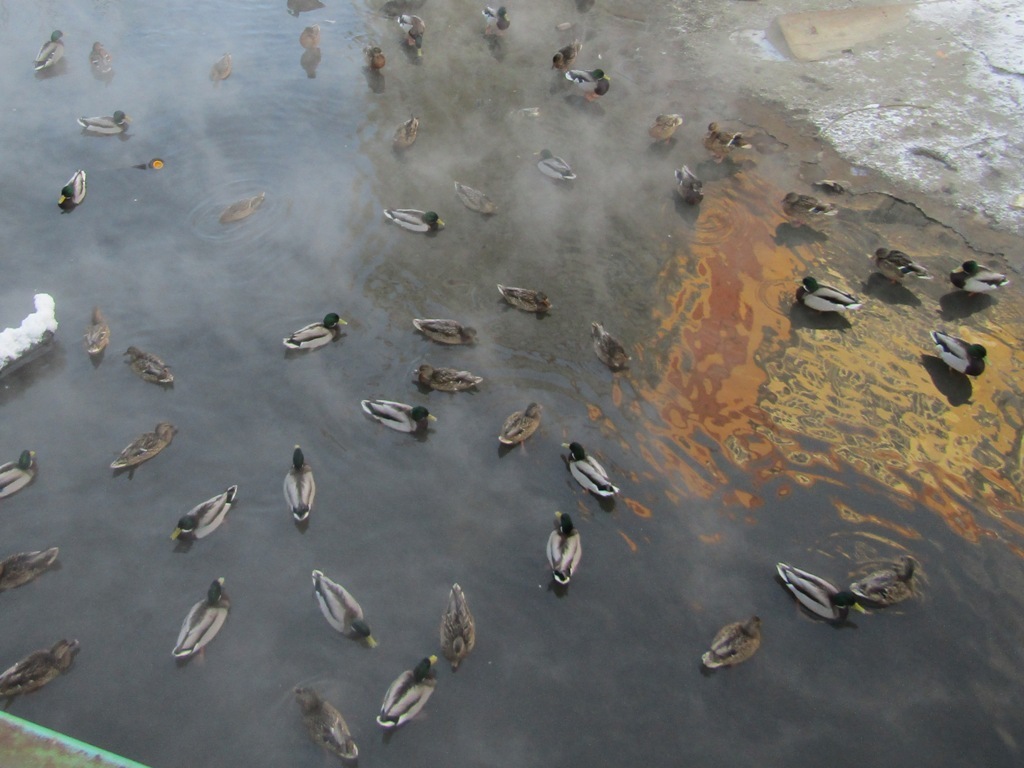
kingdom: Animalia
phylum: Chordata
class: Aves
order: Anseriformes
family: Anatidae
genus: Anas
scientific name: Anas platyrhynchos
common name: Mallard
